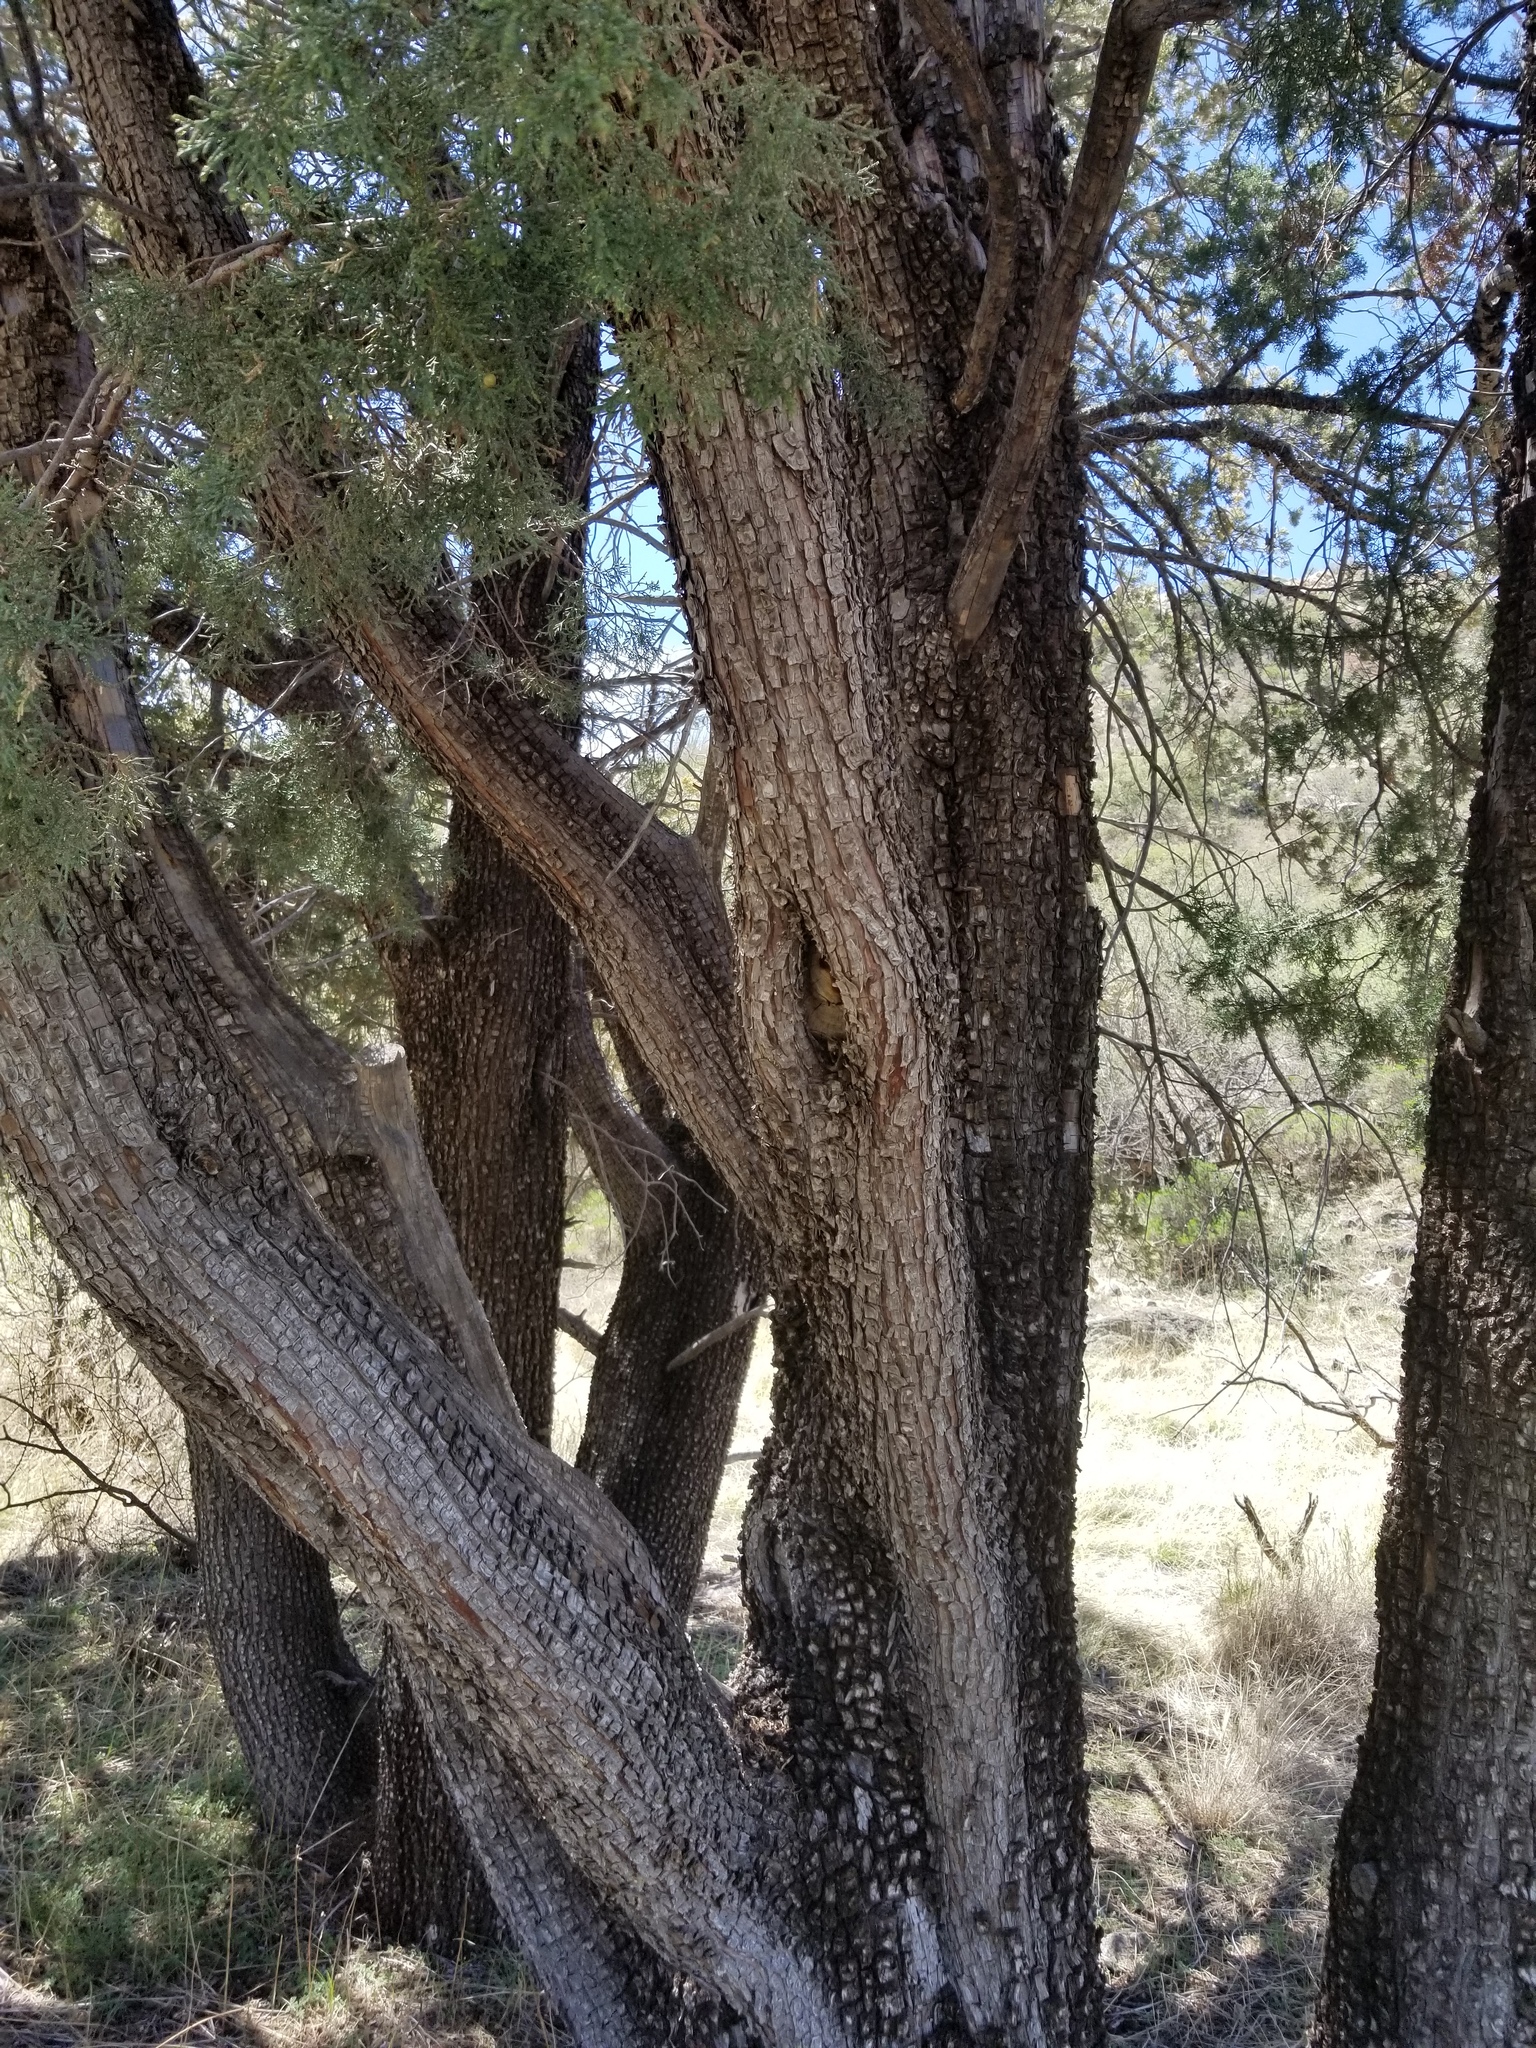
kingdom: Plantae
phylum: Tracheophyta
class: Pinopsida
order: Pinales
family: Cupressaceae
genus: Juniperus
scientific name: Juniperus deppeana
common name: Alligator juniper
